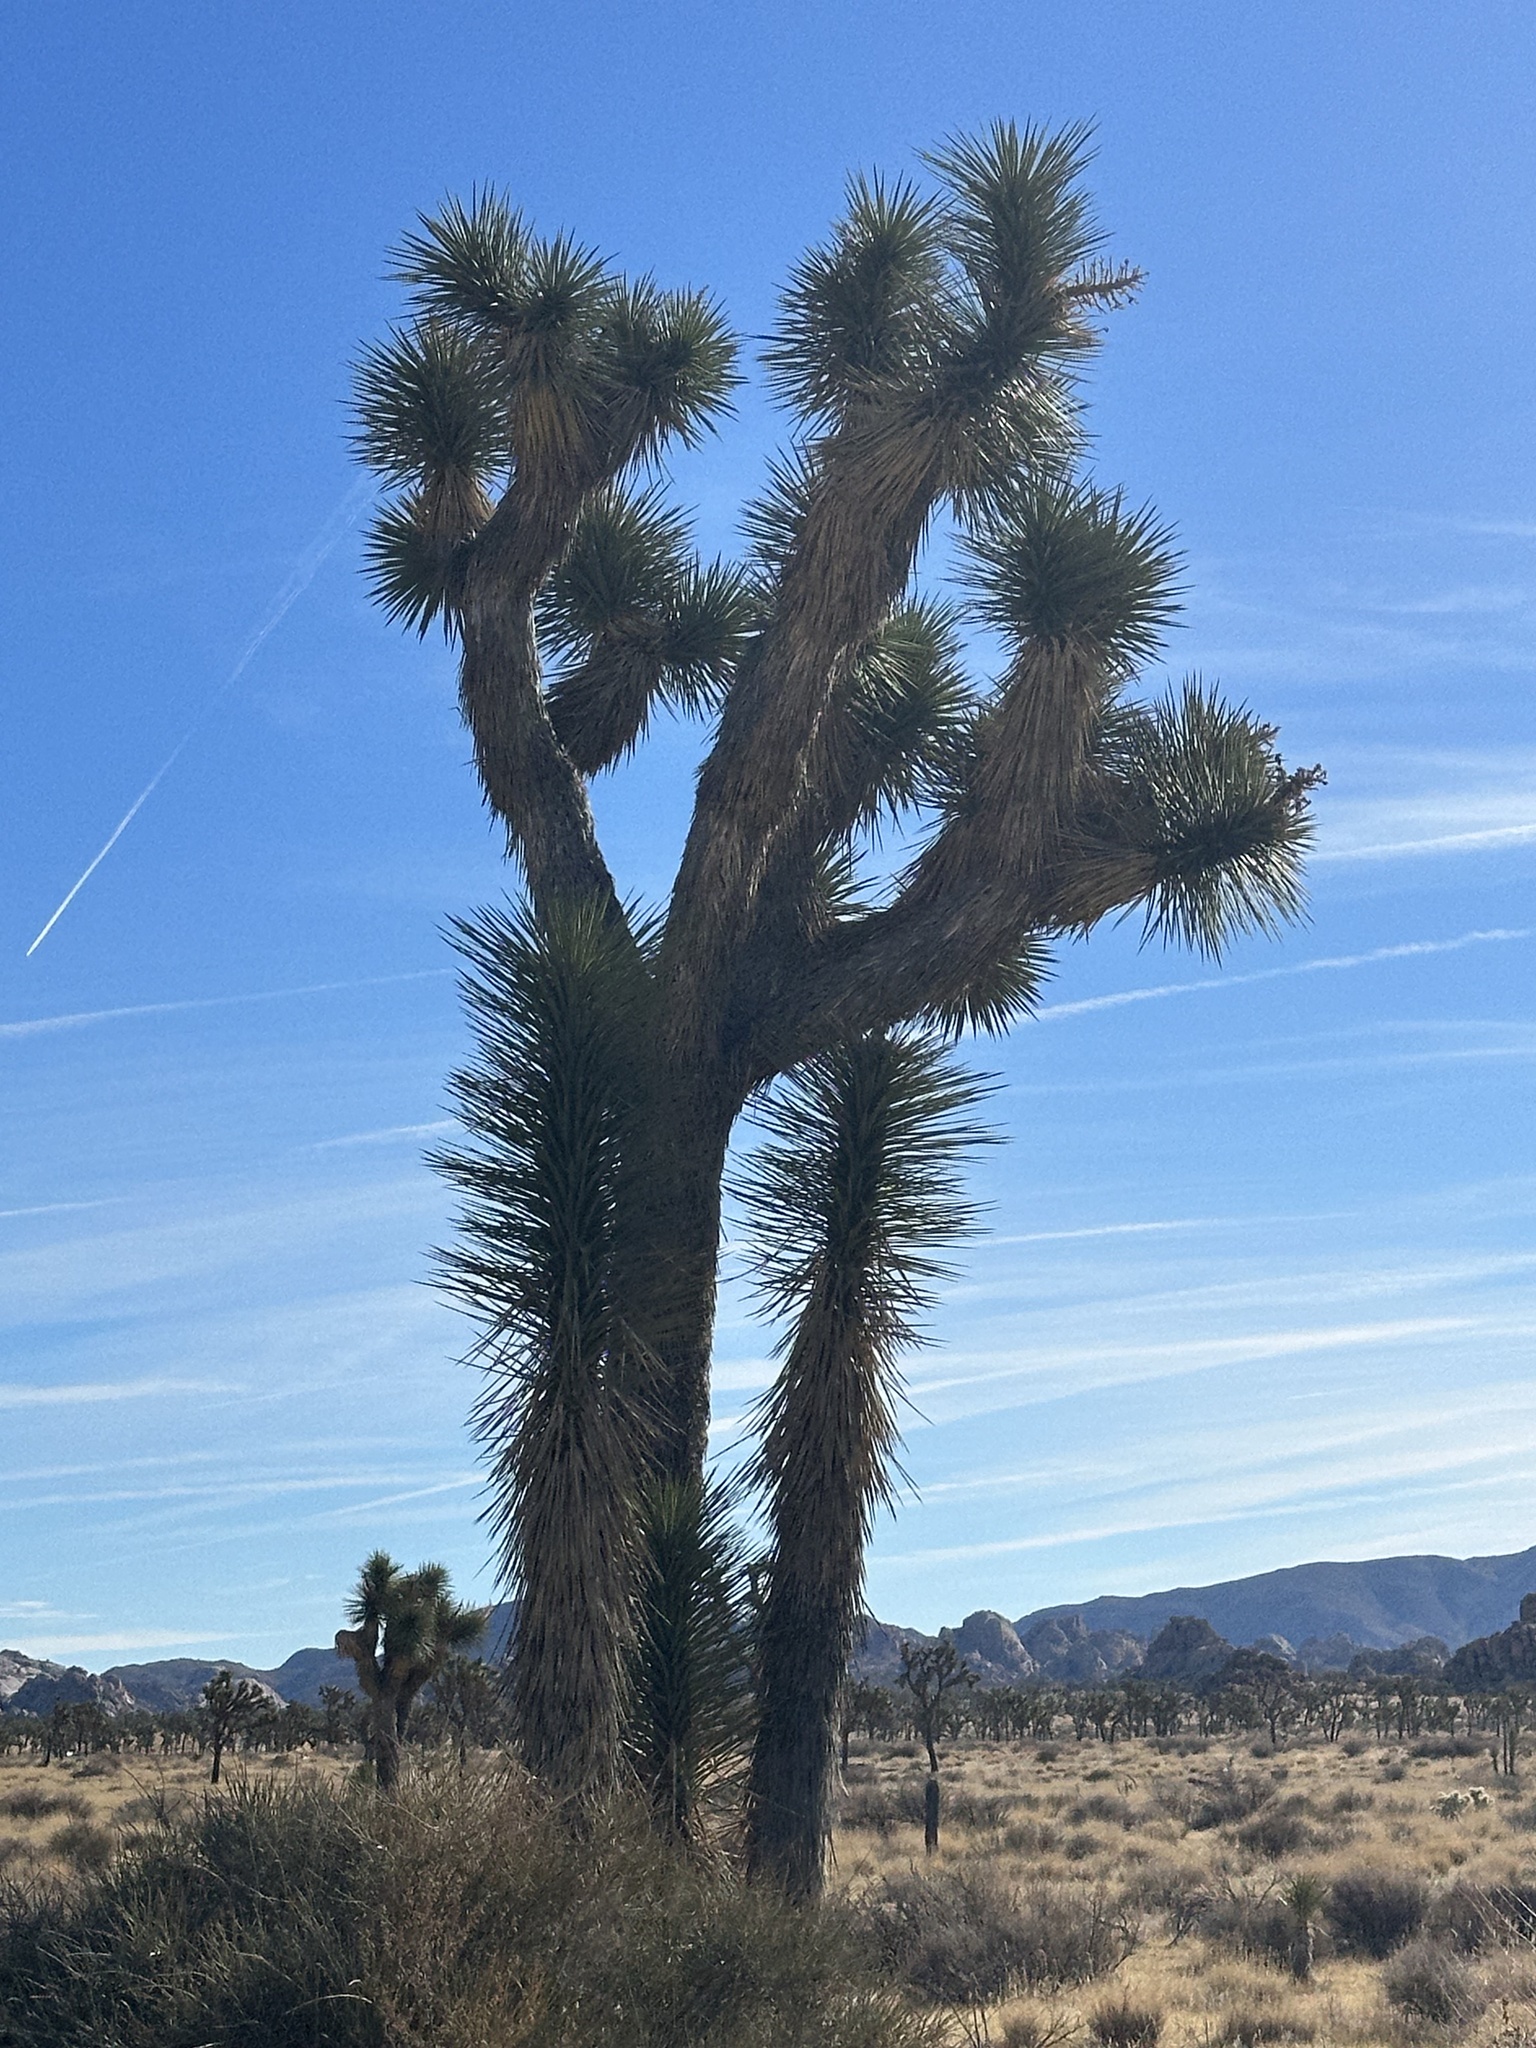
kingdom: Plantae
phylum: Tracheophyta
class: Liliopsida
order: Asparagales
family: Asparagaceae
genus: Yucca
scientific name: Yucca brevifolia
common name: Joshua tree
